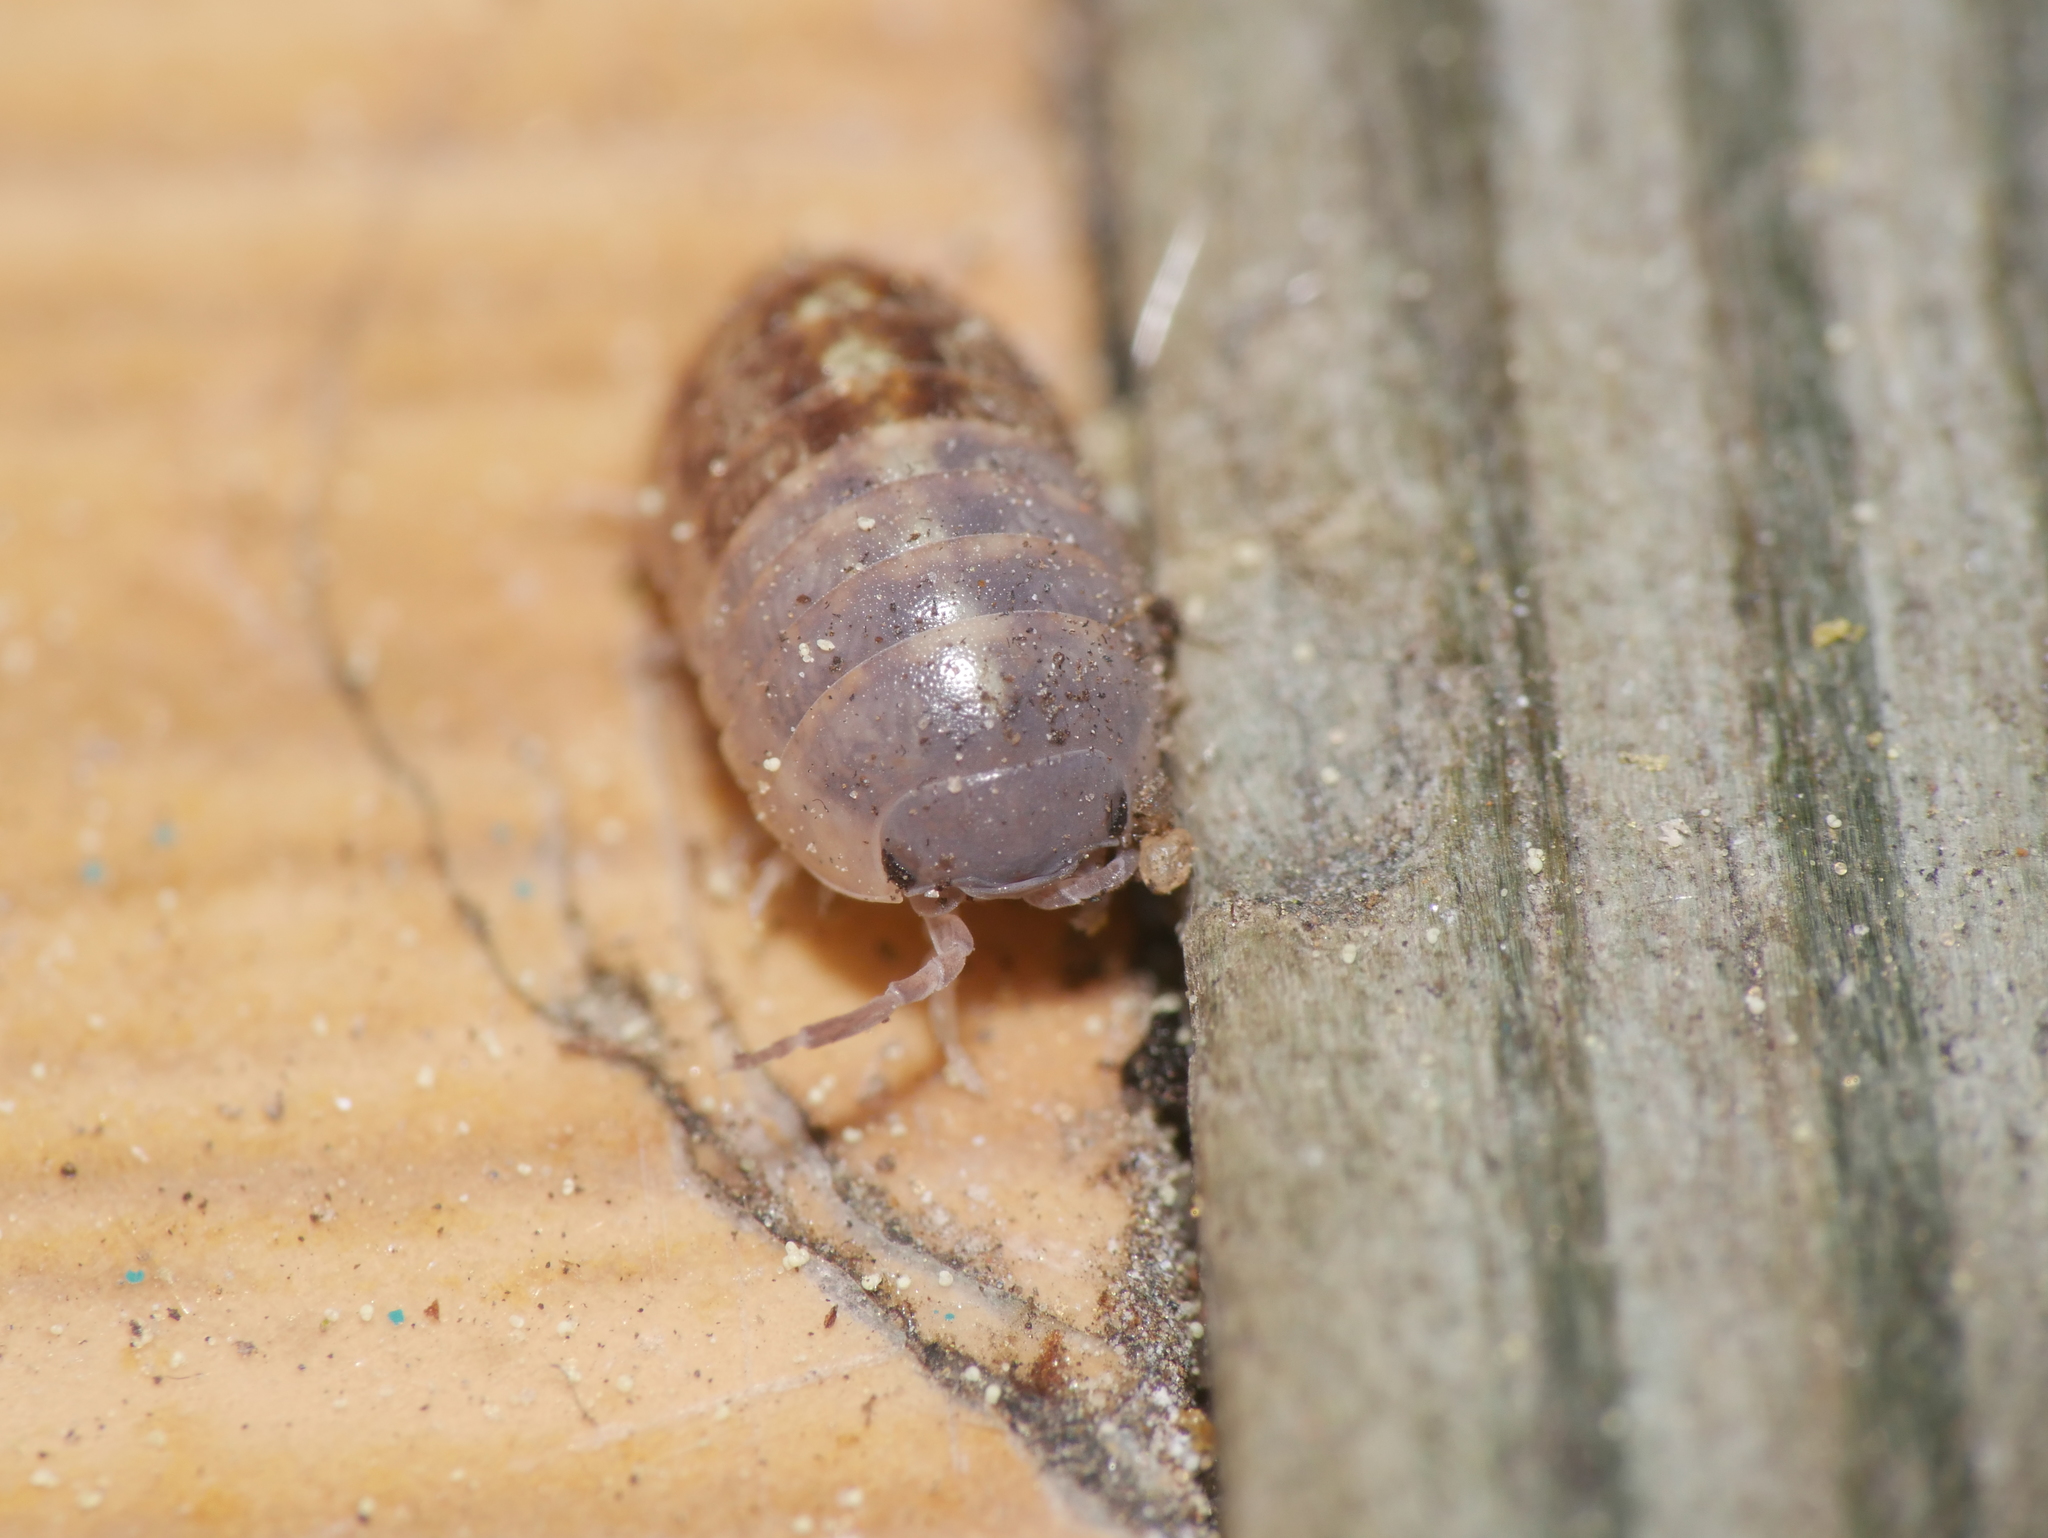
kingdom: Animalia
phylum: Arthropoda
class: Malacostraca
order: Isopoda
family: Armadillidiidae
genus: Armadillidium
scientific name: Armadillidium vulgare
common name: Common pill woodlouse
